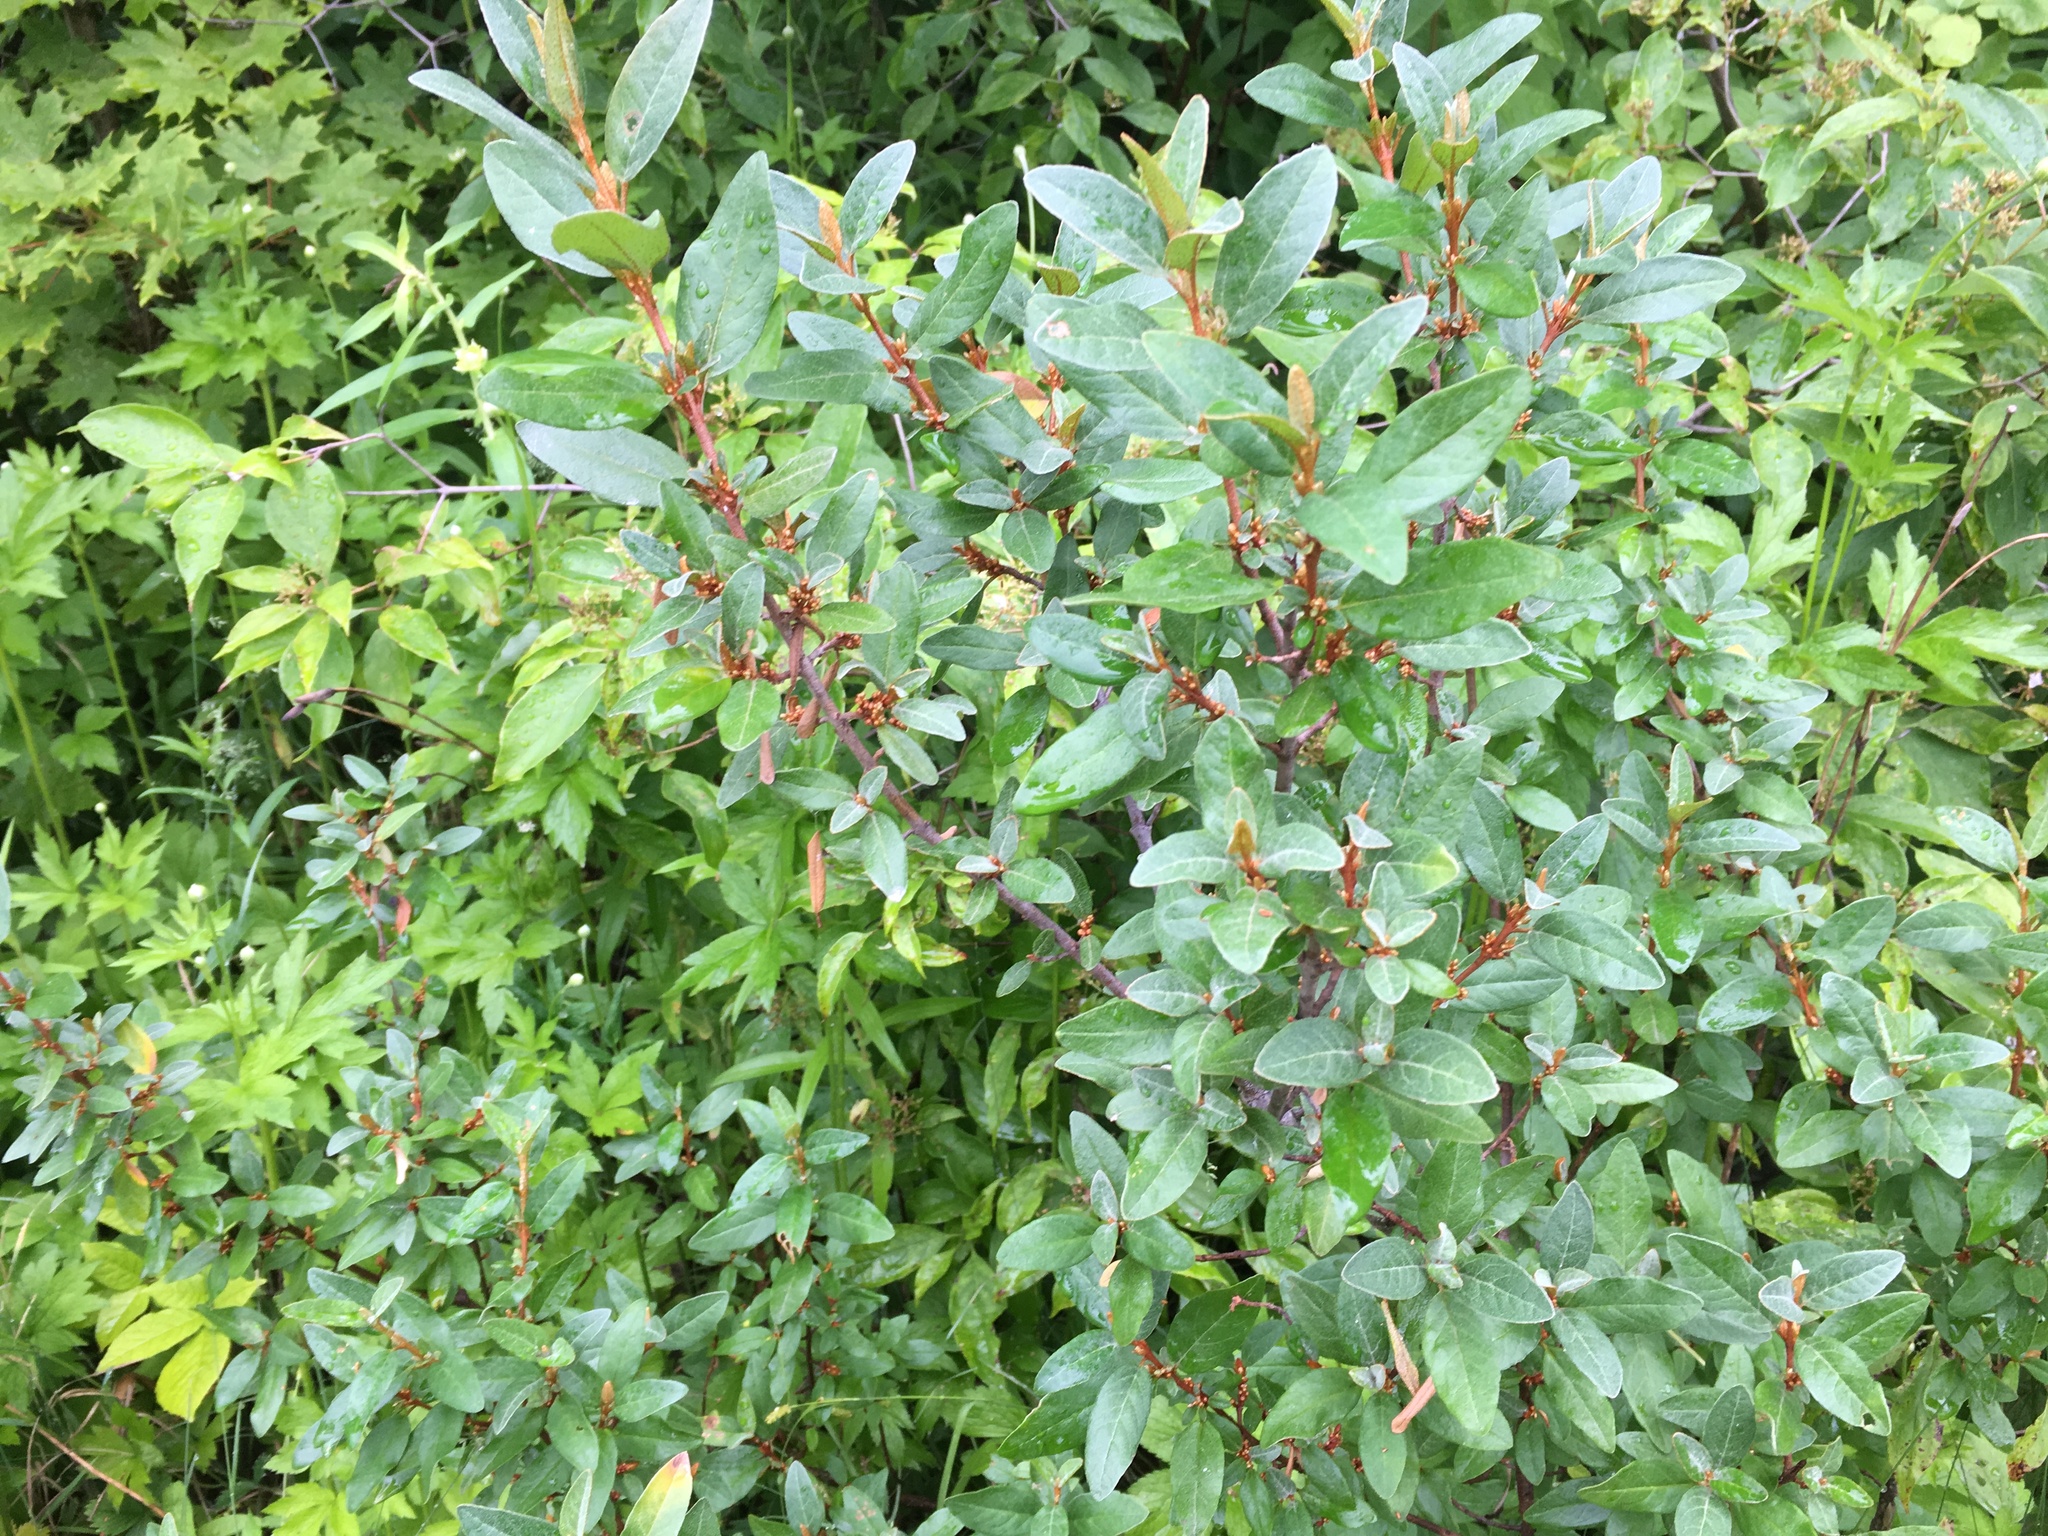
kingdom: Plantae
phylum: Tracheophyta
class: Magnoliopsida
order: Rosales
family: Elaeagnaceae
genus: Shepherdia
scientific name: Shepherdia canadensis
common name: Soapberry
